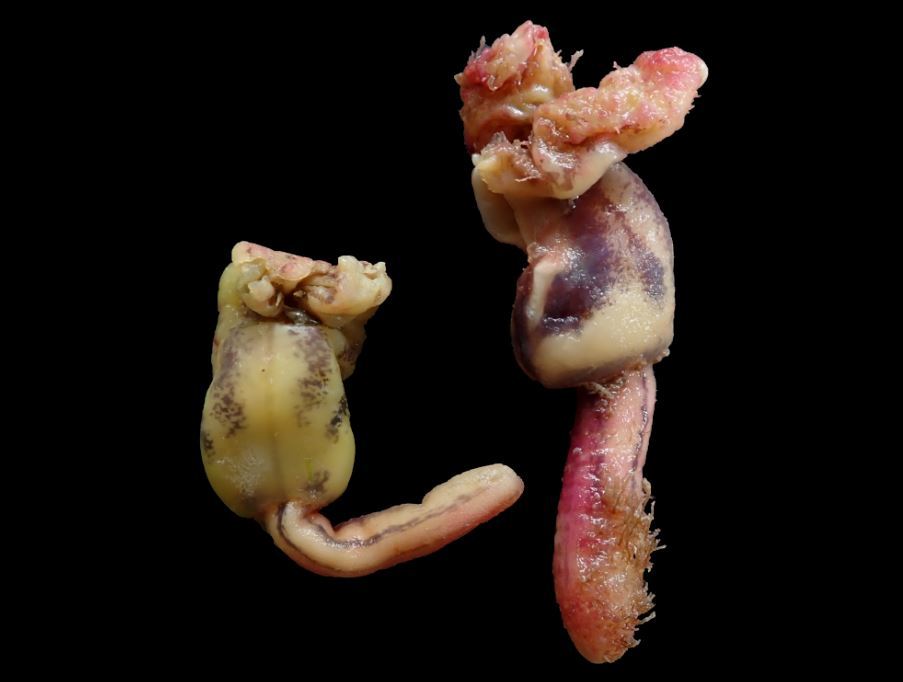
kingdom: Animalia
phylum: Arthropoda
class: Maxillopoda
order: Pedunculata
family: Lepadidae
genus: Conchoderma
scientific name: Conchoderma auritum
